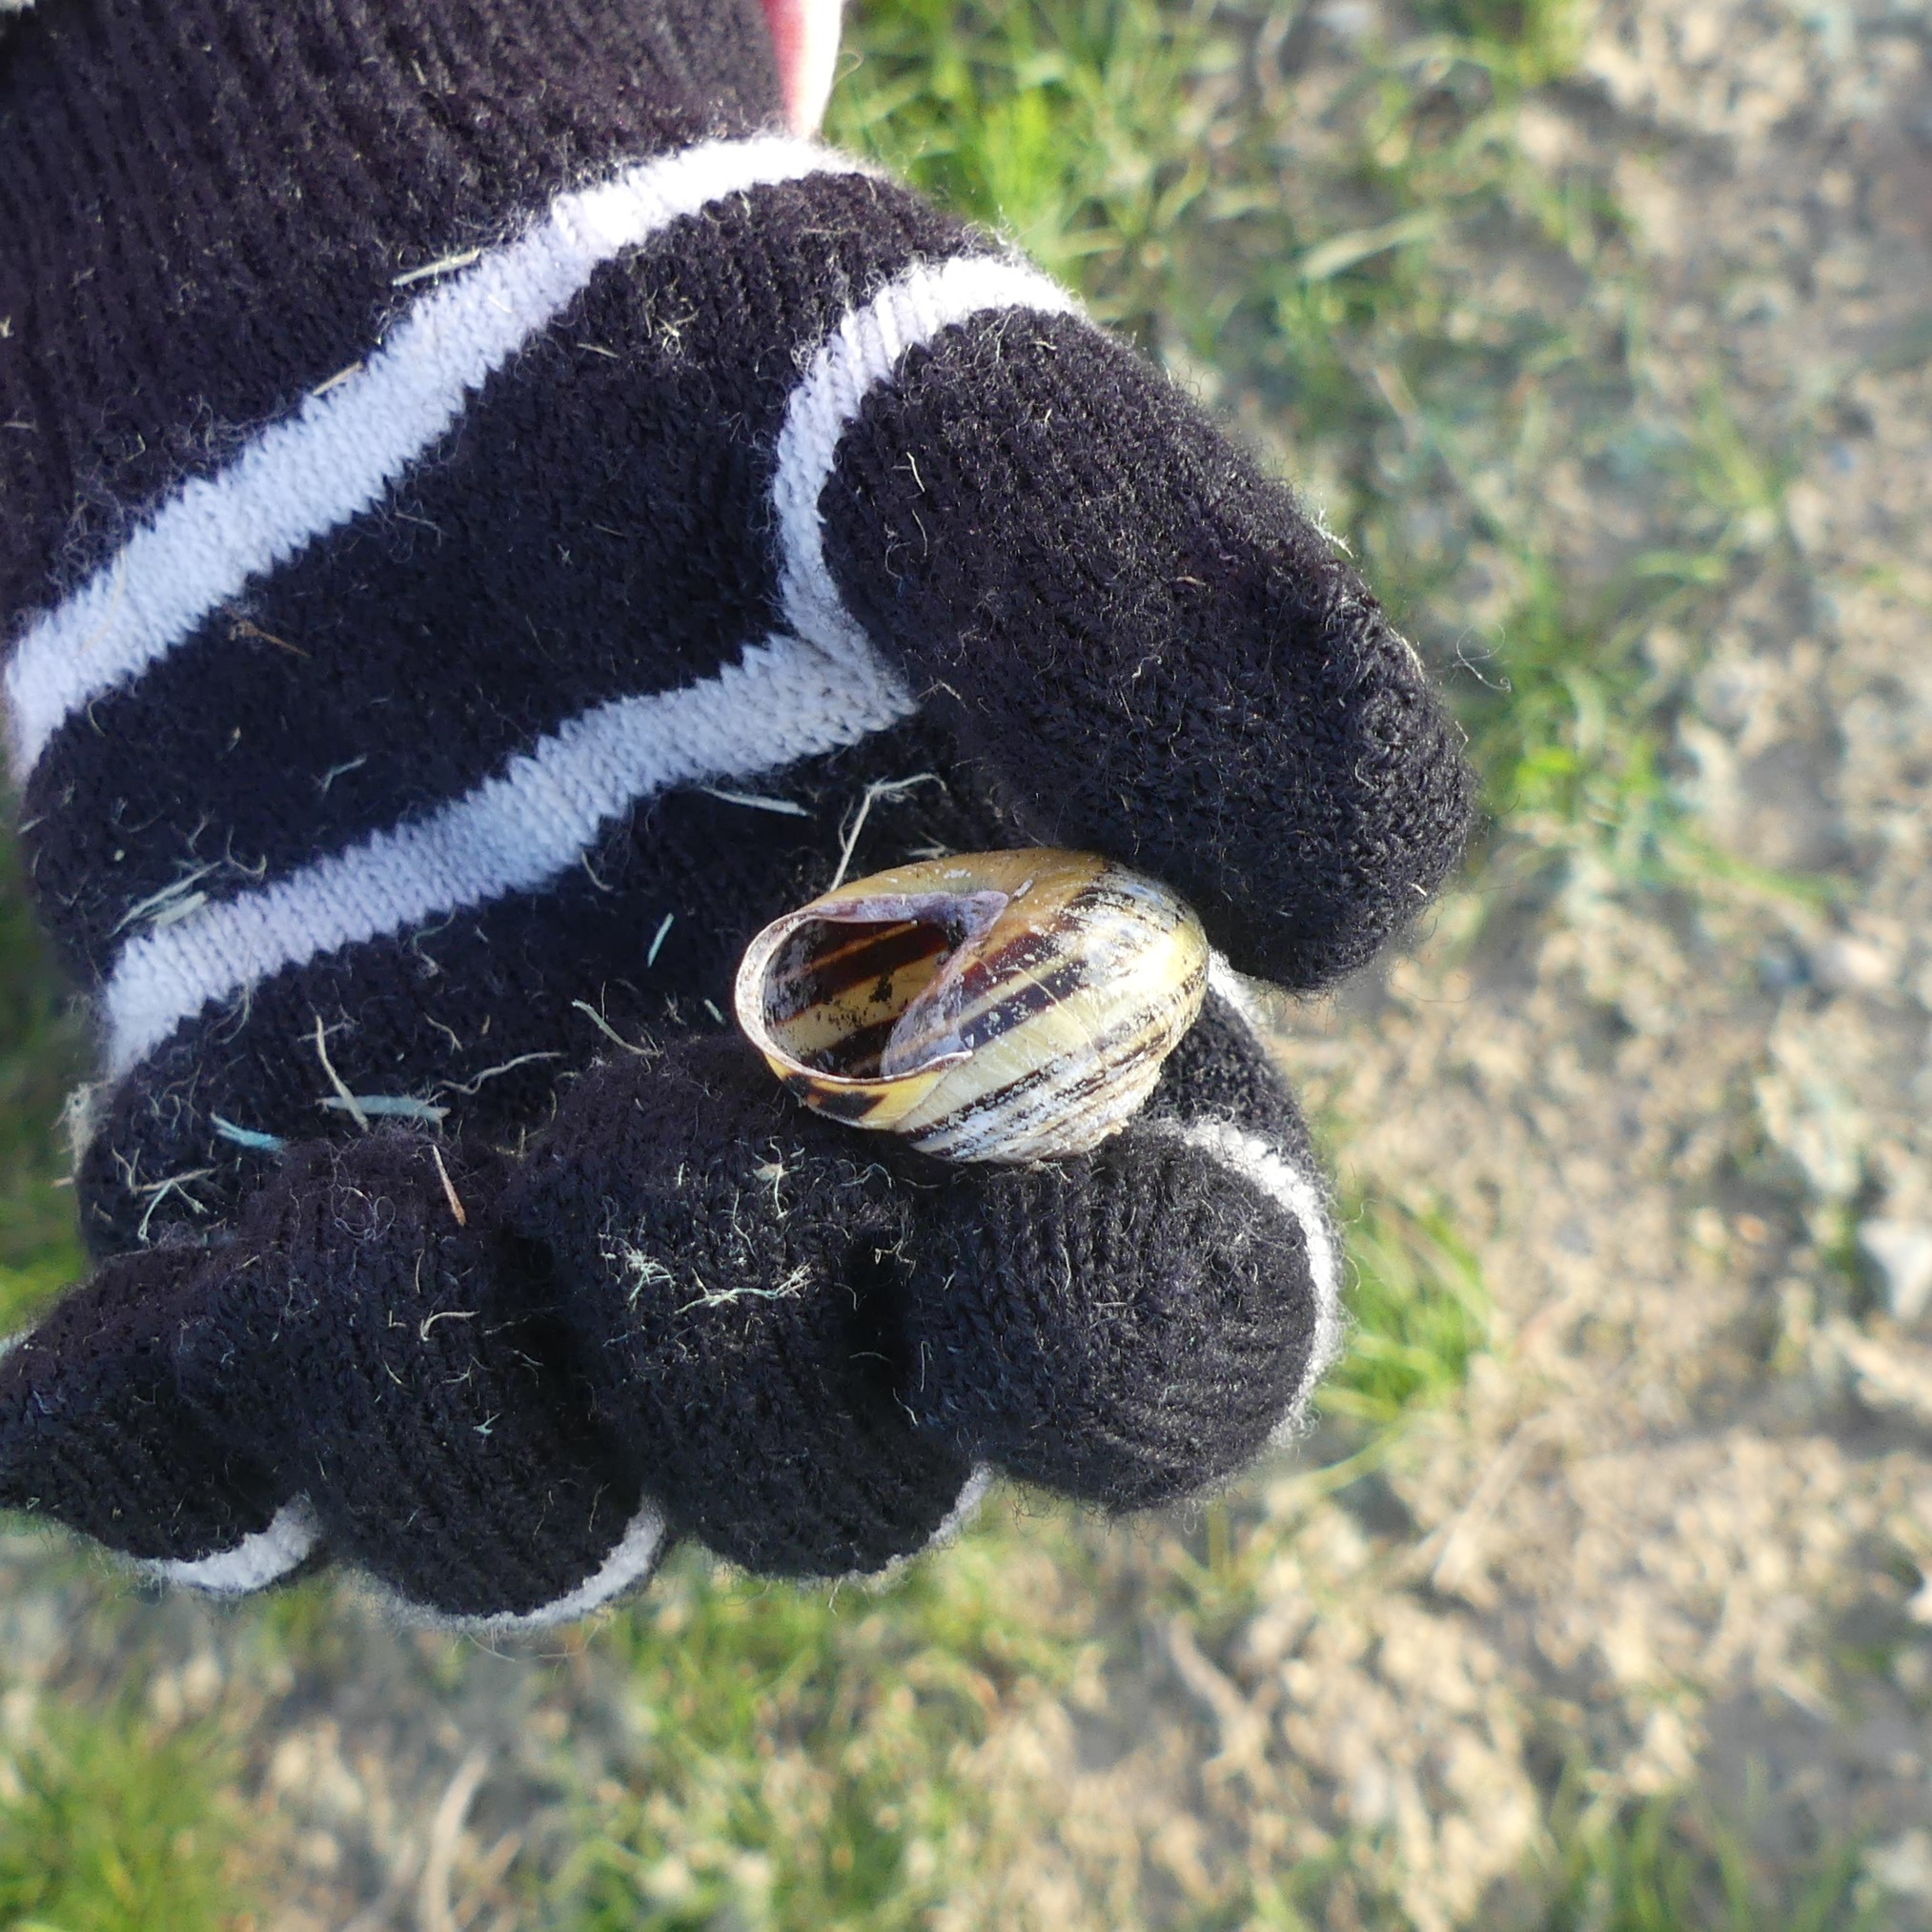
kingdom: Animalia
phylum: Mollusca
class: Gastropoda
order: Stylommatophora
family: Helicidae
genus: Cepaea
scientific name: Cepaea nemoralis
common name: Grovesnail
